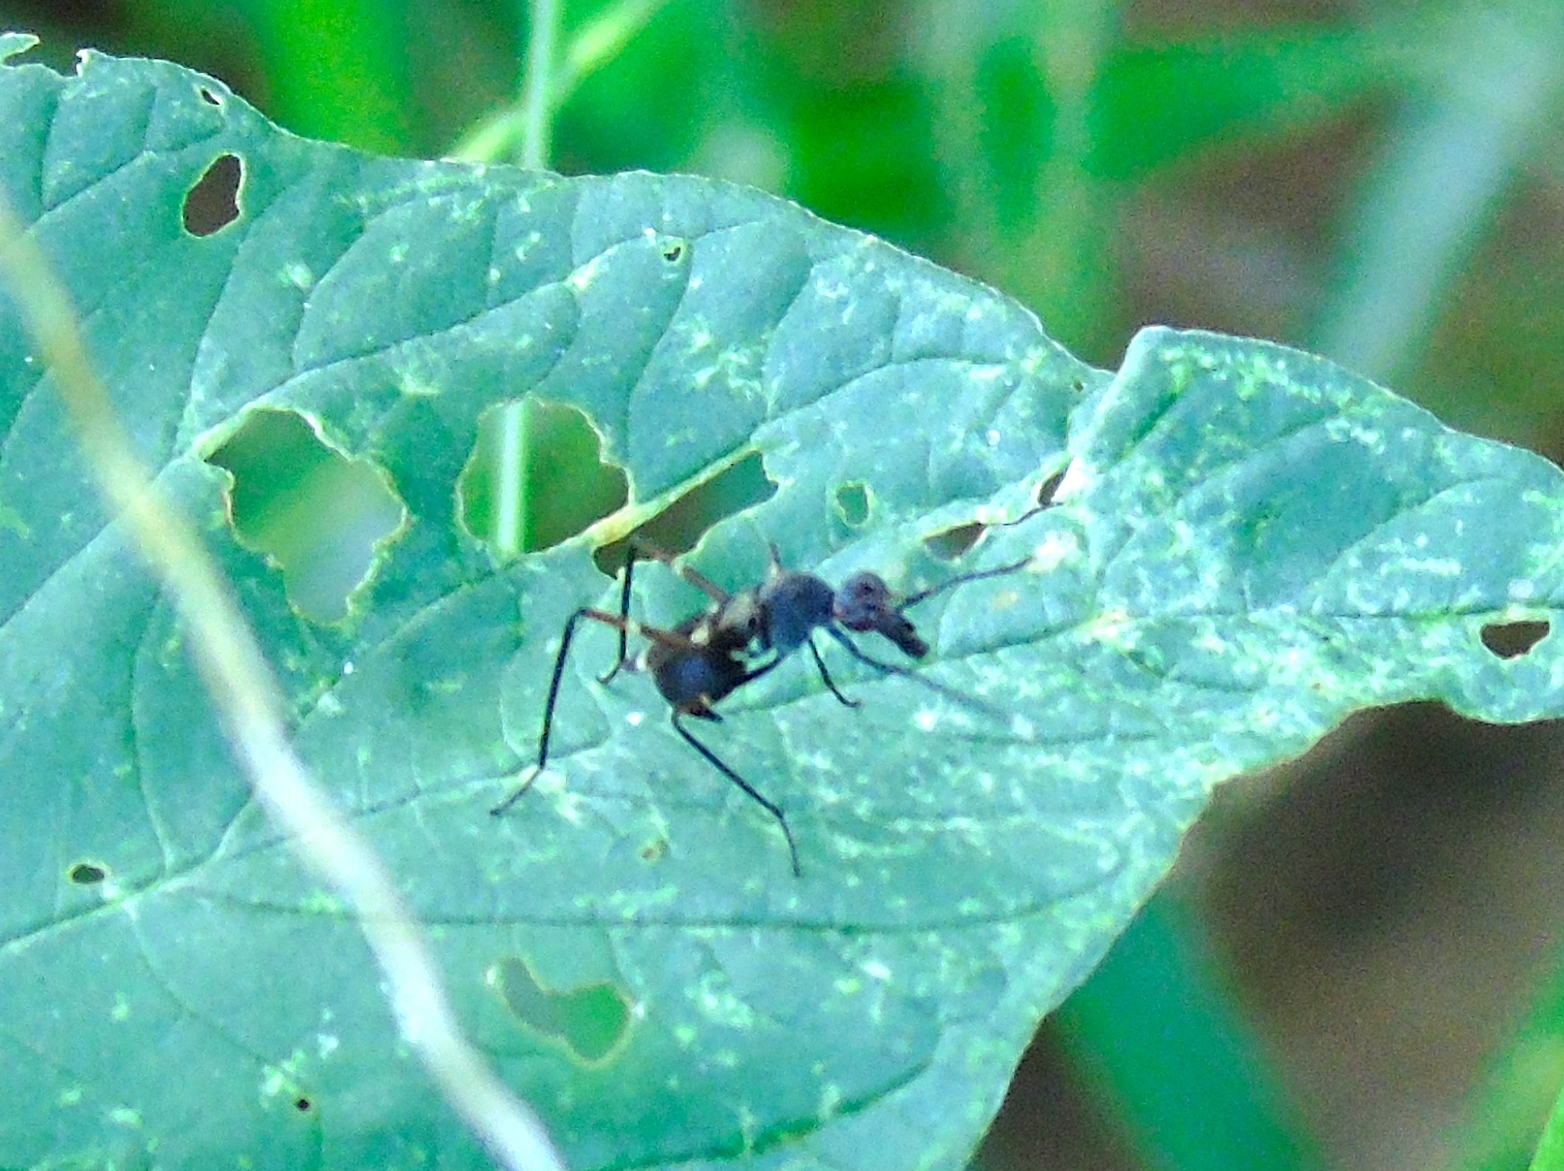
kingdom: Animalia
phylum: Arthropoda
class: Insecta
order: Diptera
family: Micropezidae
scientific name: Micropezidae
